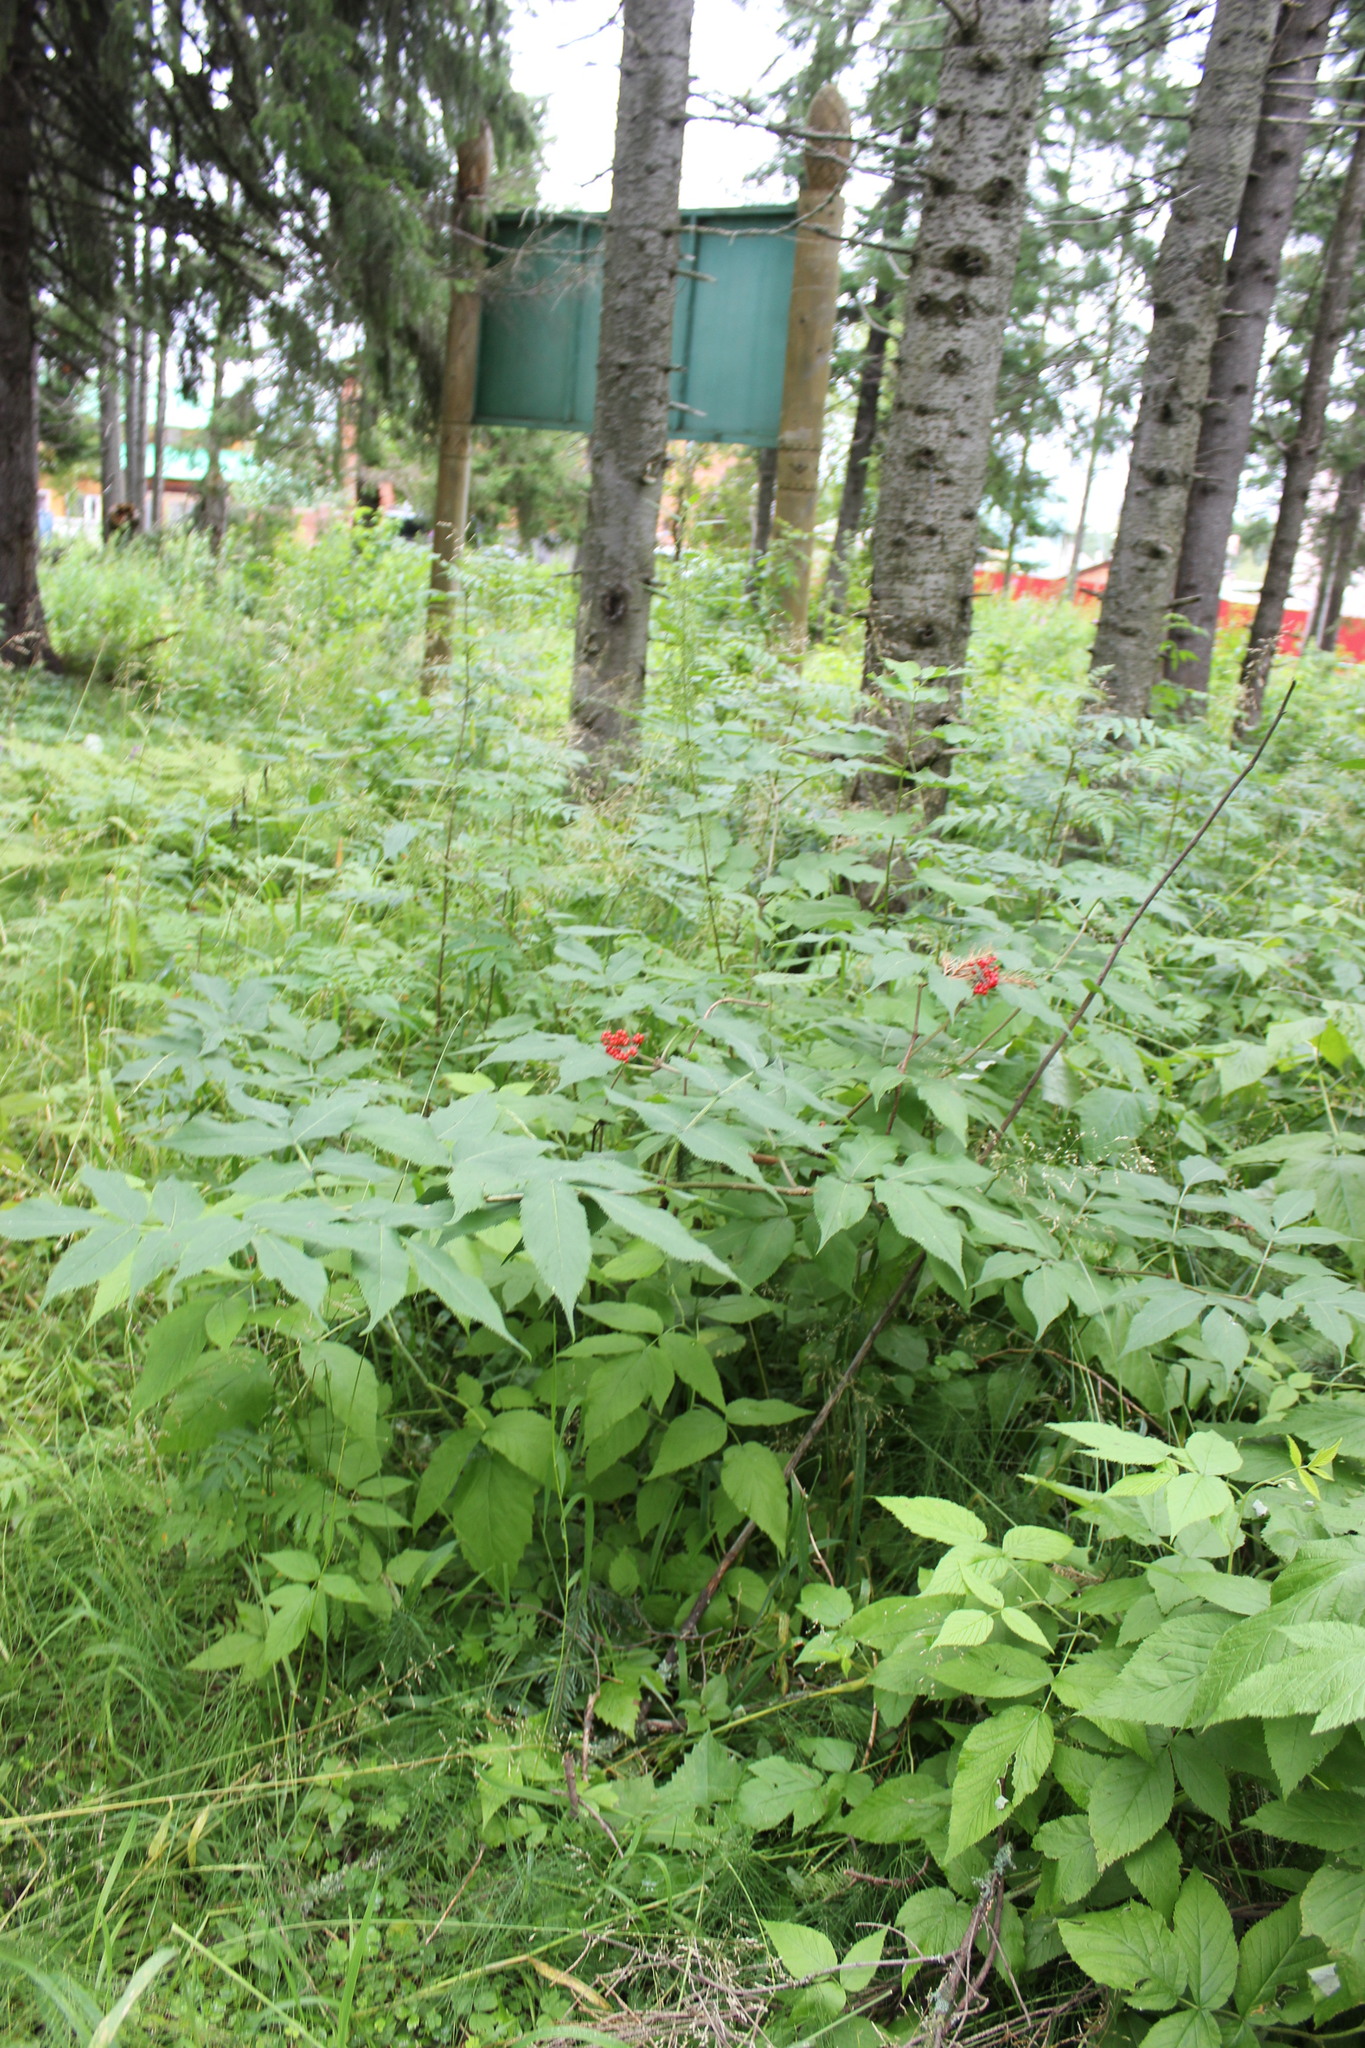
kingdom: Plantae
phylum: Tracheophyta
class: Magnoliopsida
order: Dipsacales
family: Viburnaceae
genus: Sambucus
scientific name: Sambucus sibirica
